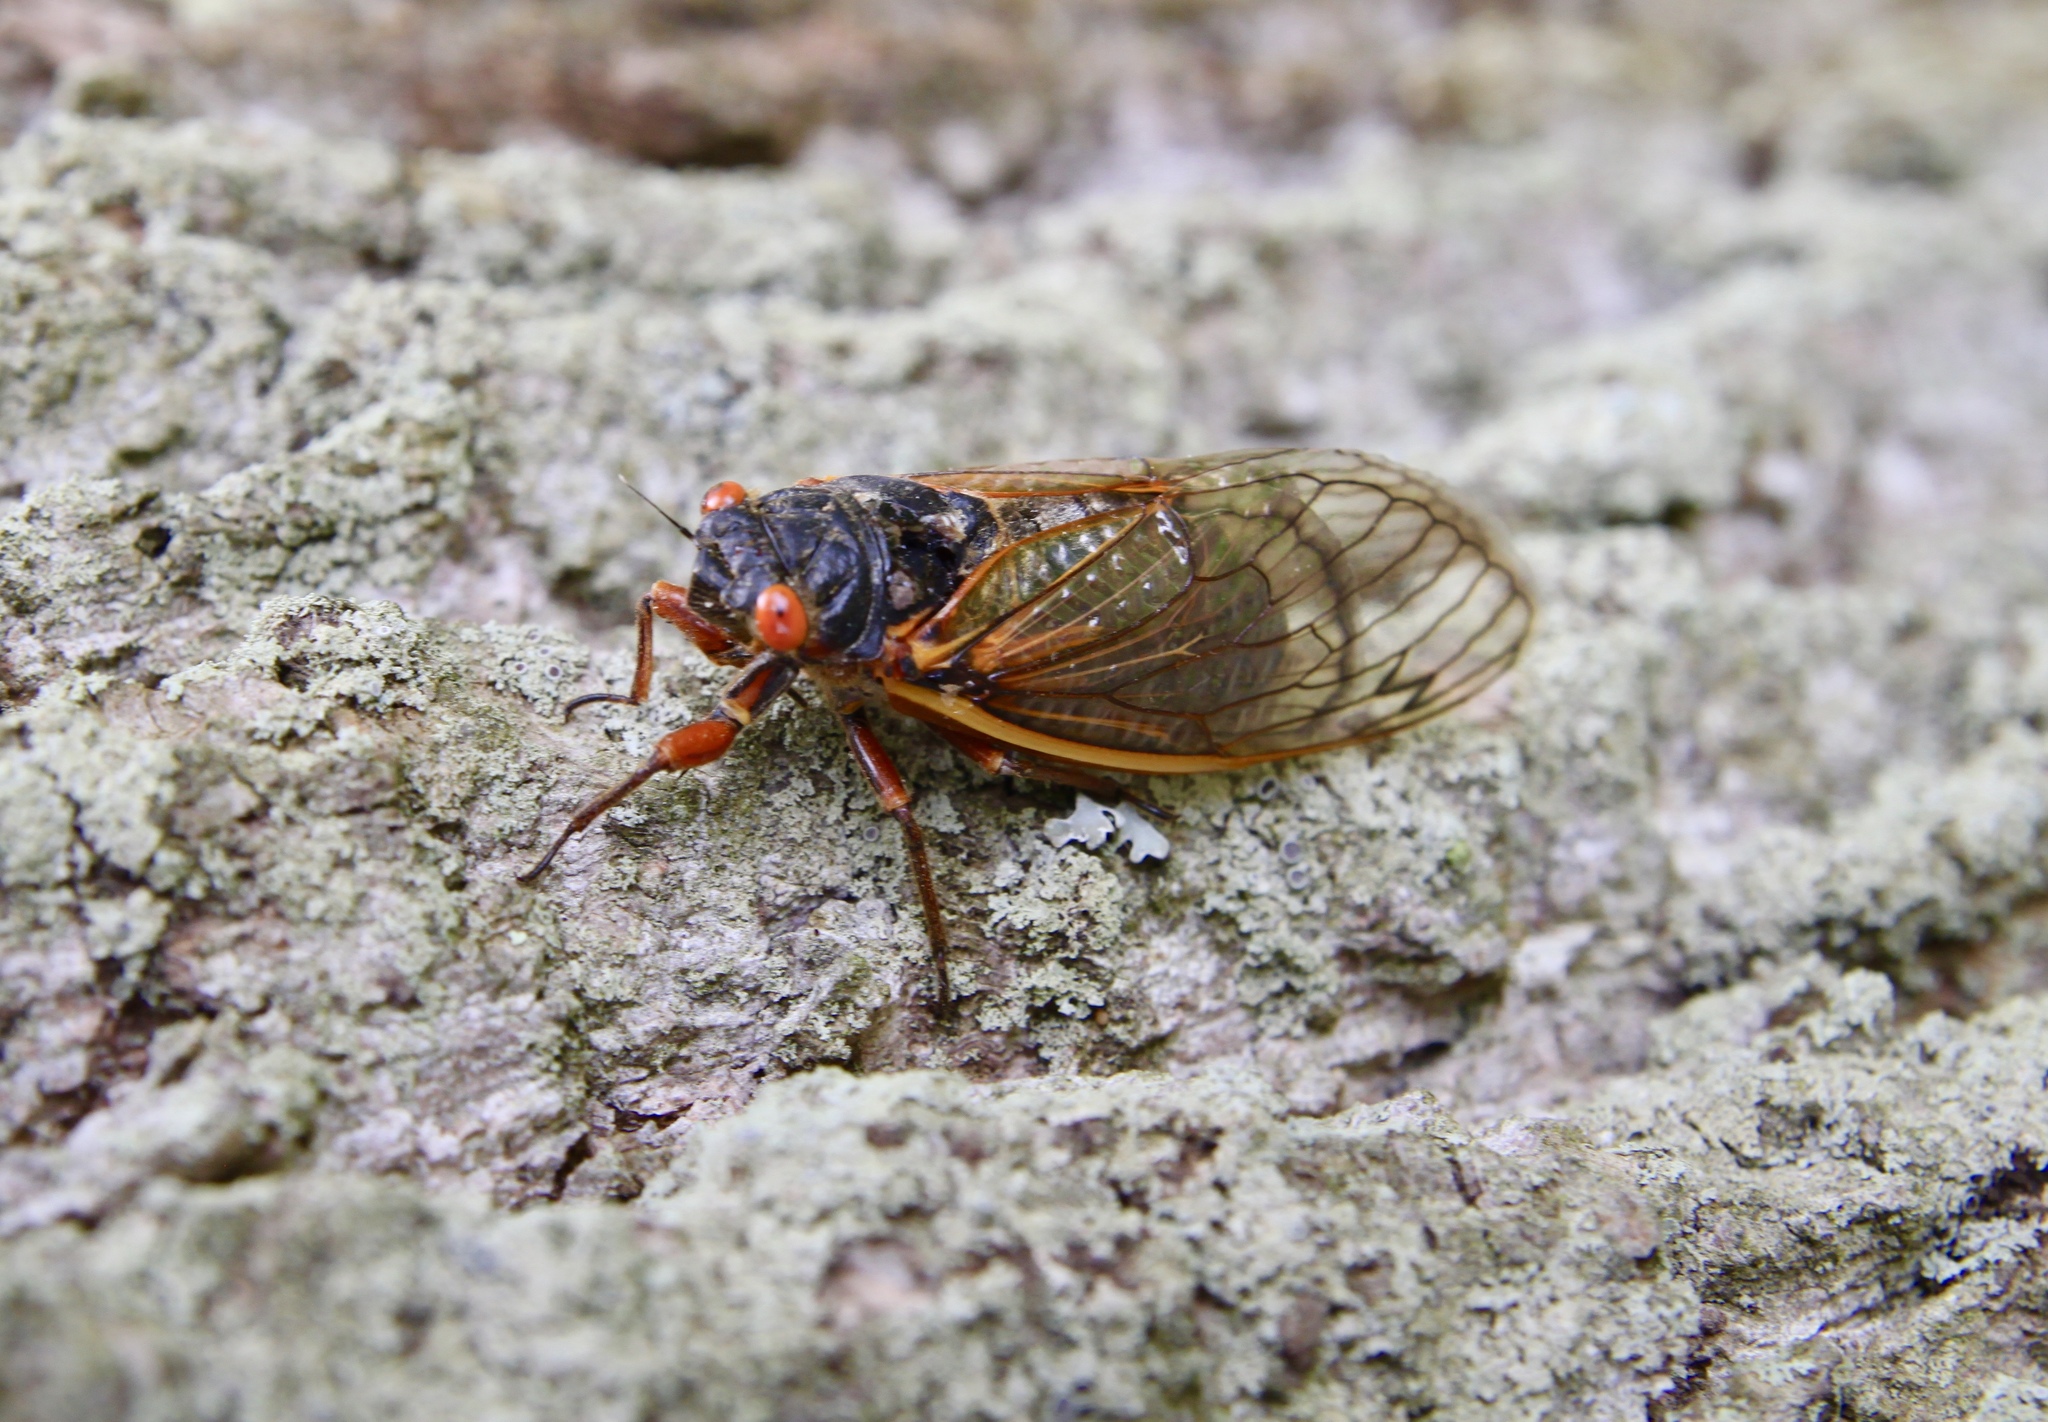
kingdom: Animalia
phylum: Arthropoda
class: Insecta
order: Hemiptera
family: Cicadidae
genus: Magicicada
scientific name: Magicicada septendecim
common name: Periodical cicada
